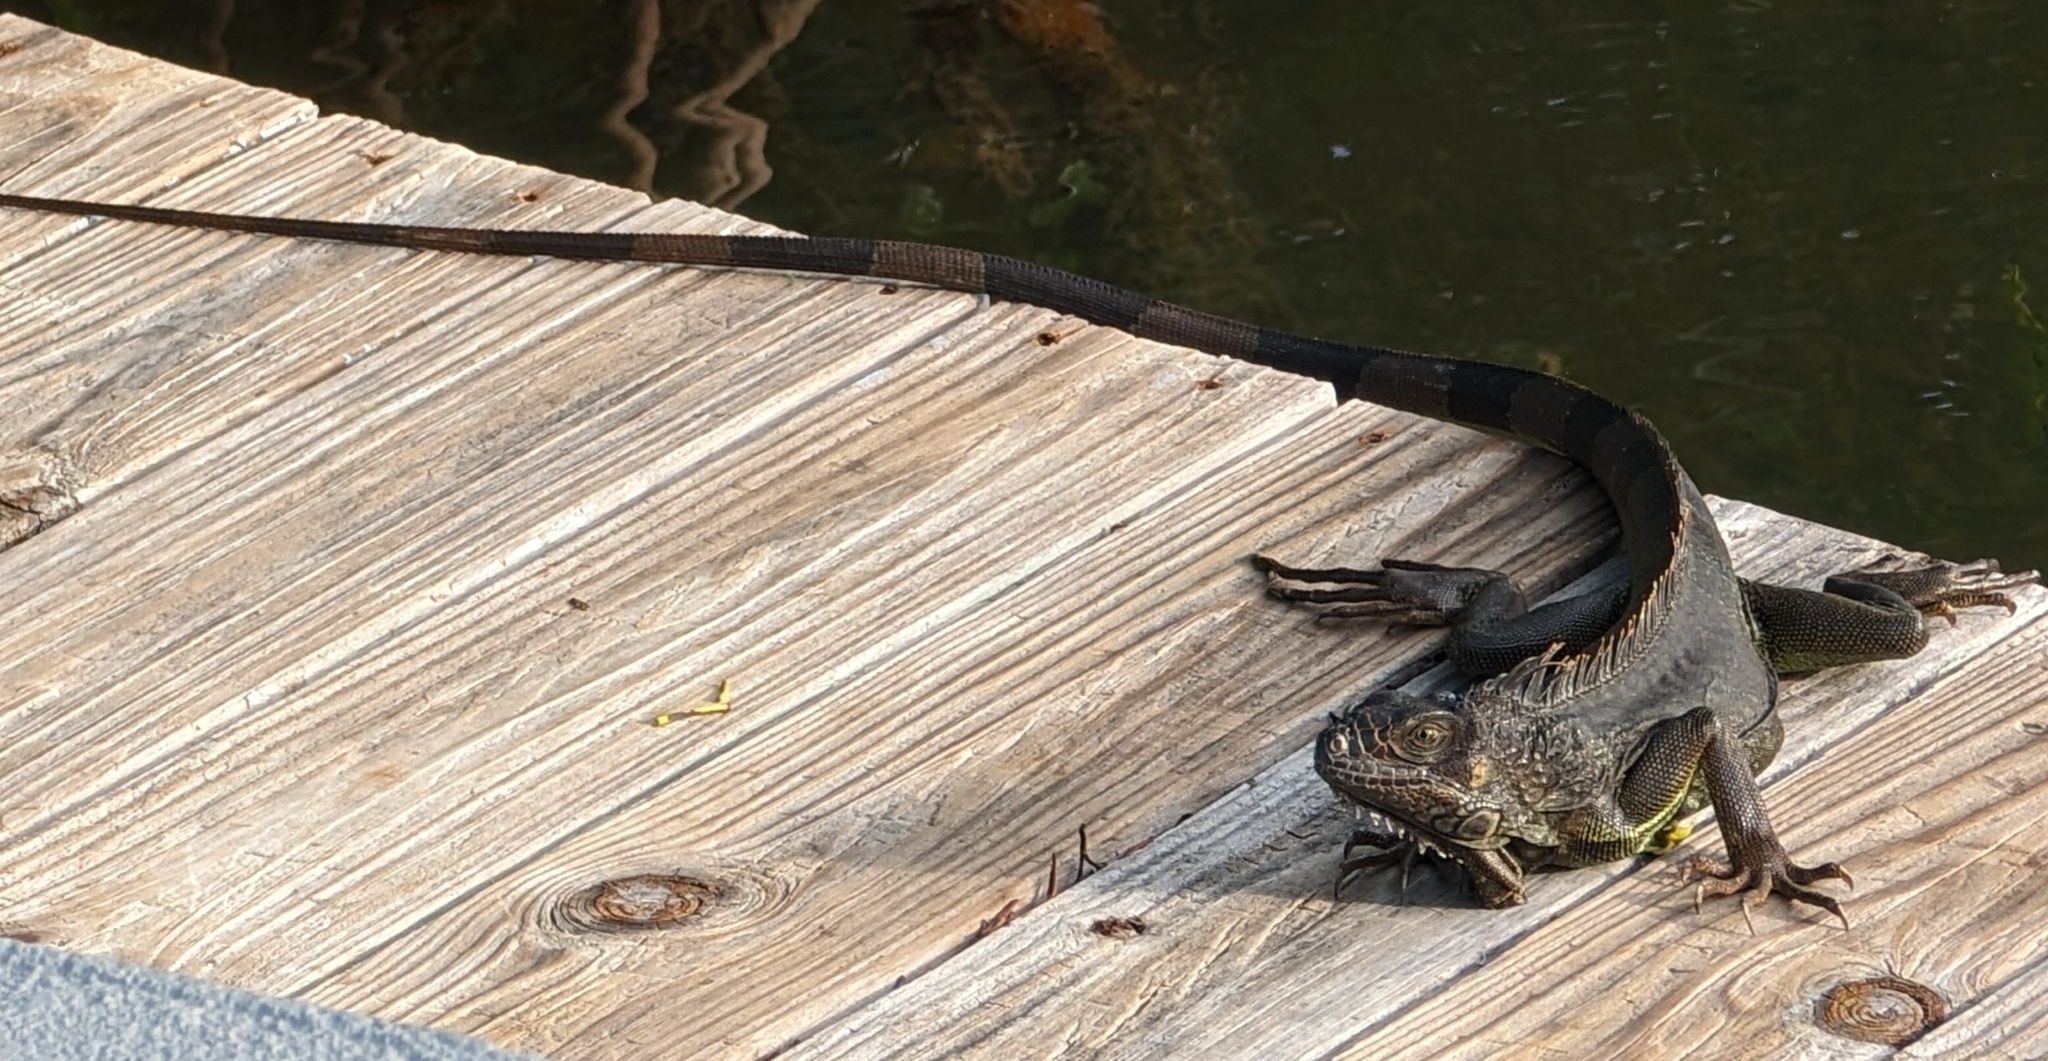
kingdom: Animalia
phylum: Chordata
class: Squamata
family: Iguanidae
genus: Iguana
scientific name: Iguana iguana
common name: Green iguana
